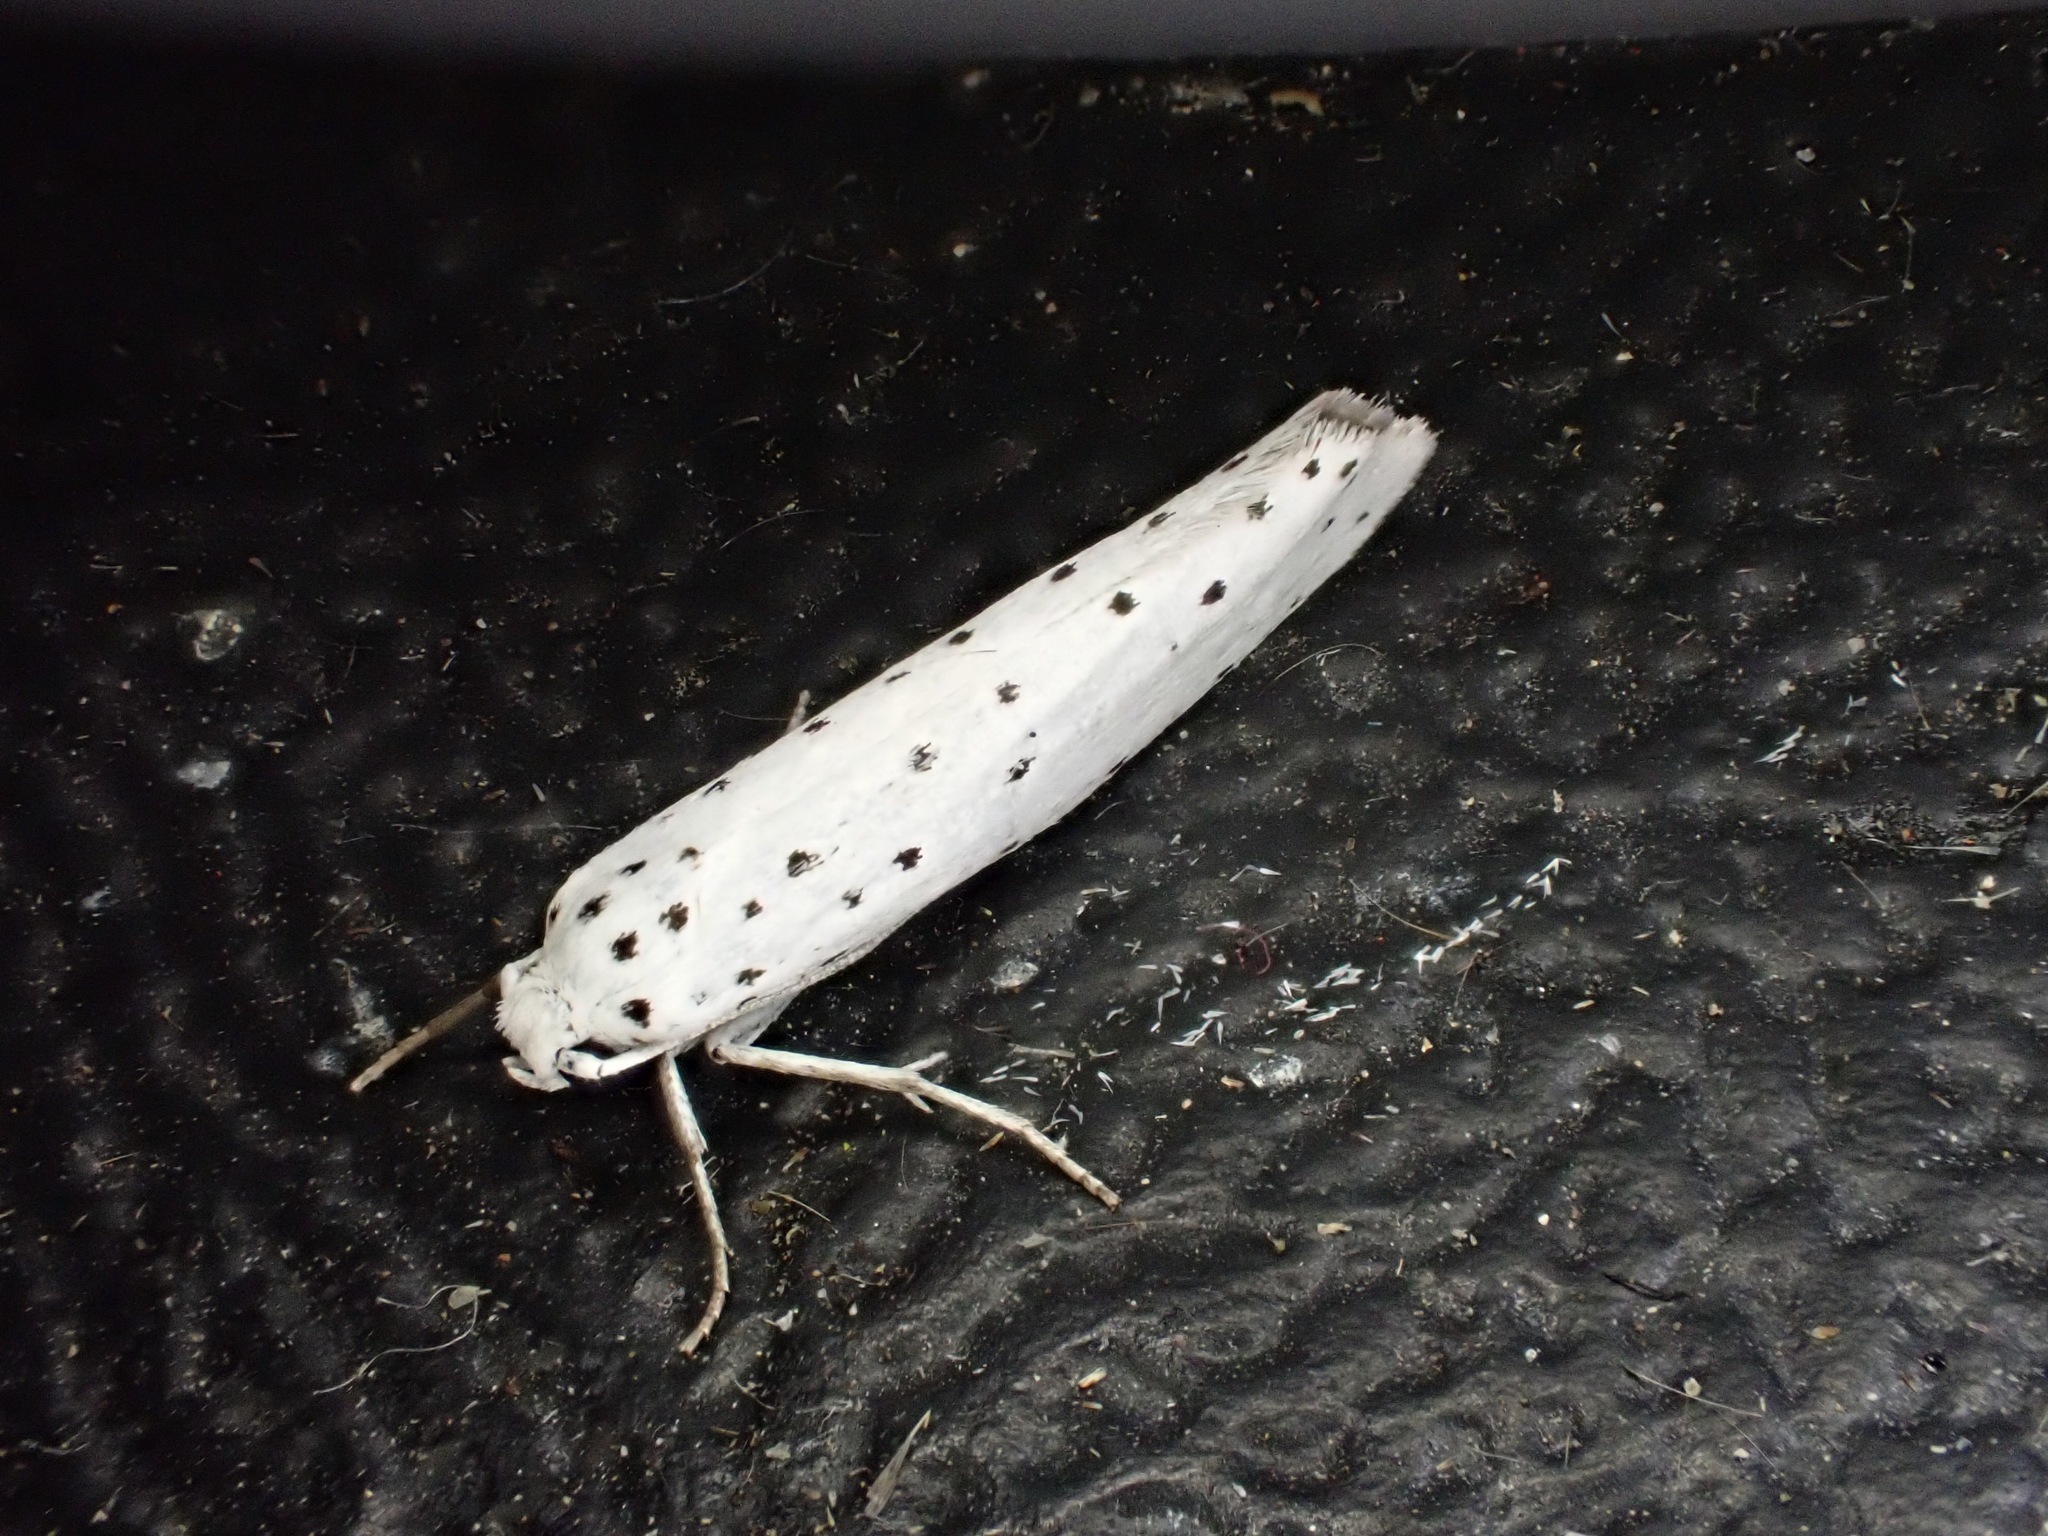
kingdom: Animalia
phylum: Arthropoda
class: Insecta
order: Lepidoptera
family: Yponomeutidae
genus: Yponomeuta
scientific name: Yponomeuta
